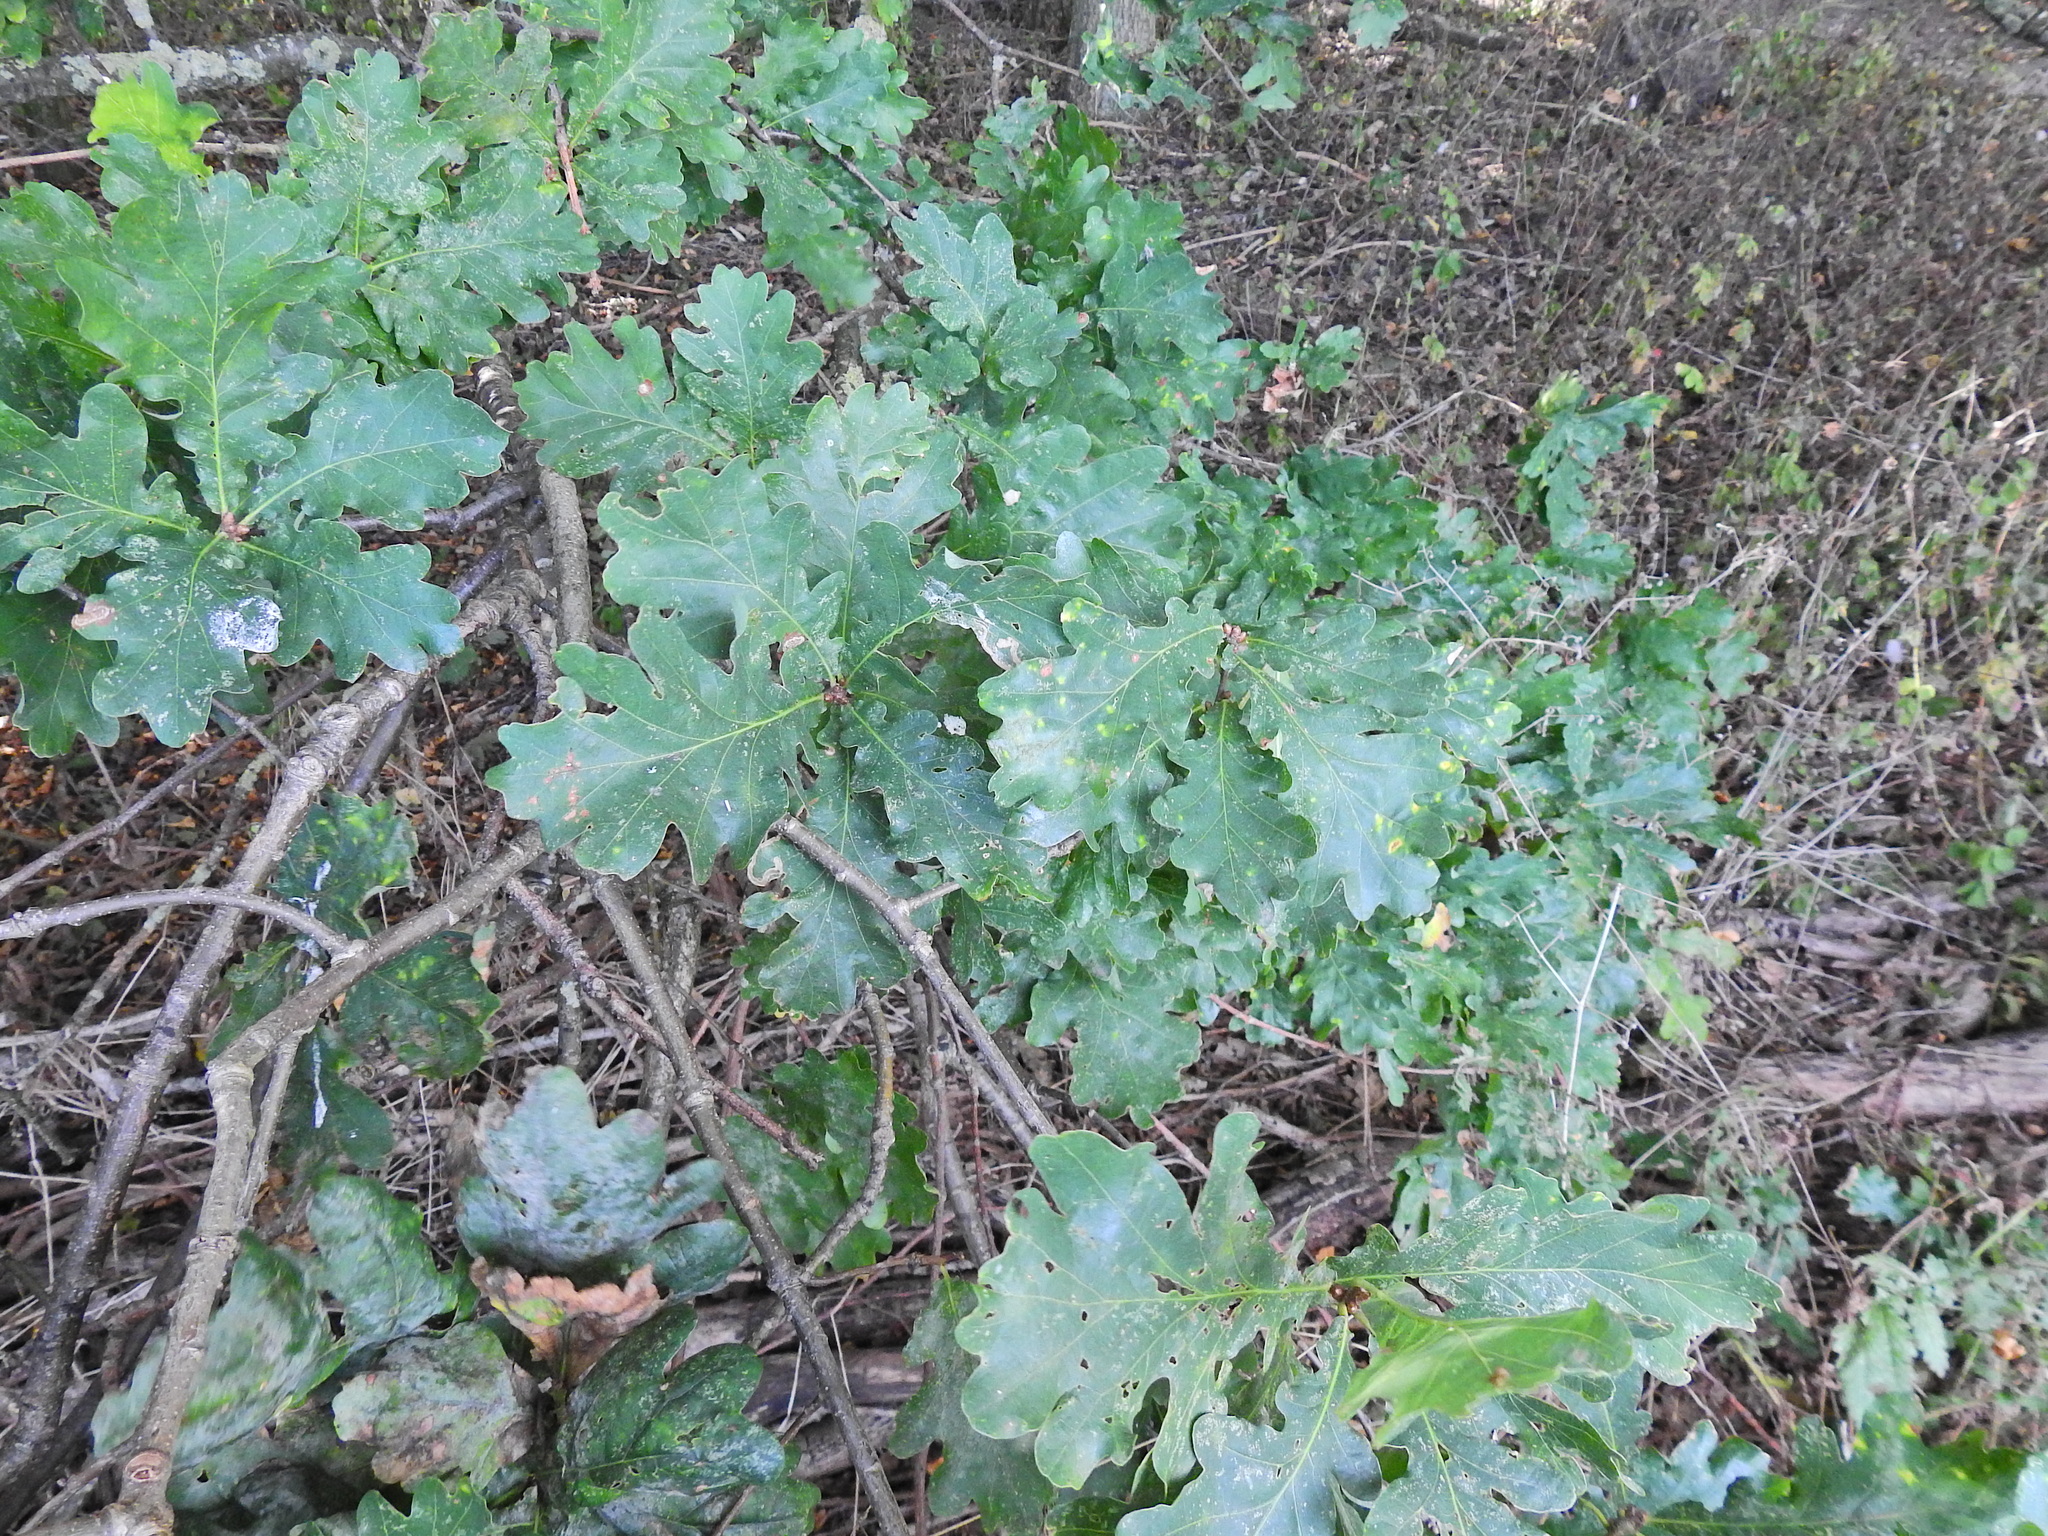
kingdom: Plantae
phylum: Tracheophyta
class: Magnoliopsida
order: Fagales
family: Fagaceae
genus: Quercus
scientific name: Quercus robur
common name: Pedunculate oak
